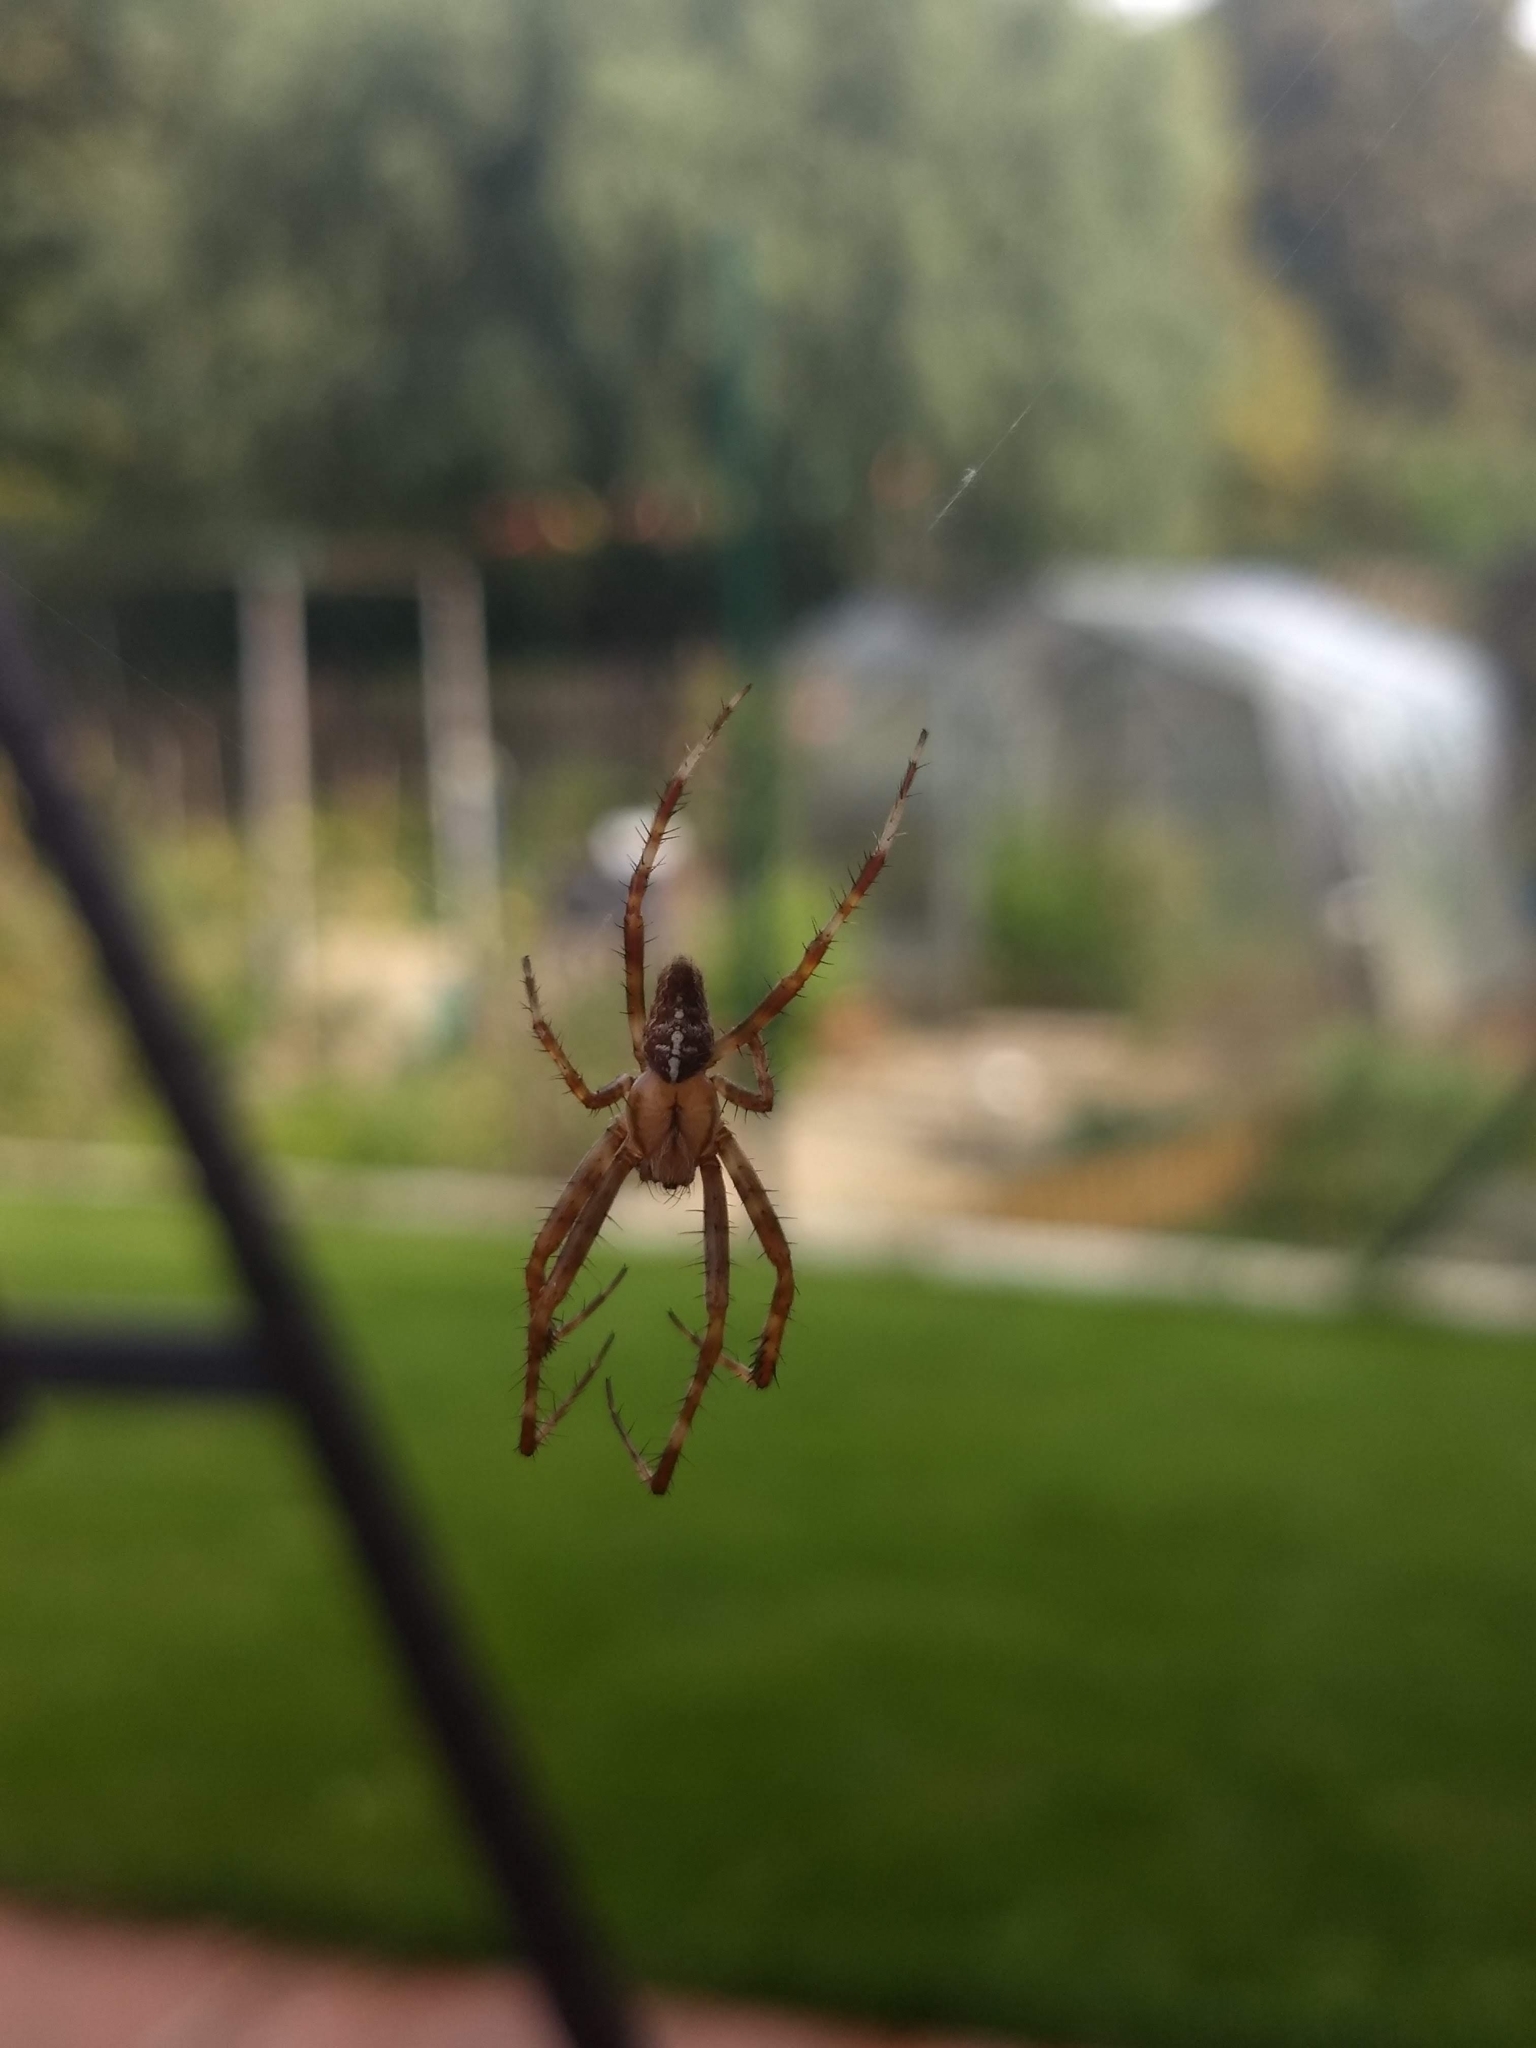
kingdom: Animalia
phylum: Arthropoda
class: Arachnida
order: Araneae
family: Araneidae
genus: Araneus
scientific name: Araneus diadematus
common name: Cross orbweaver
